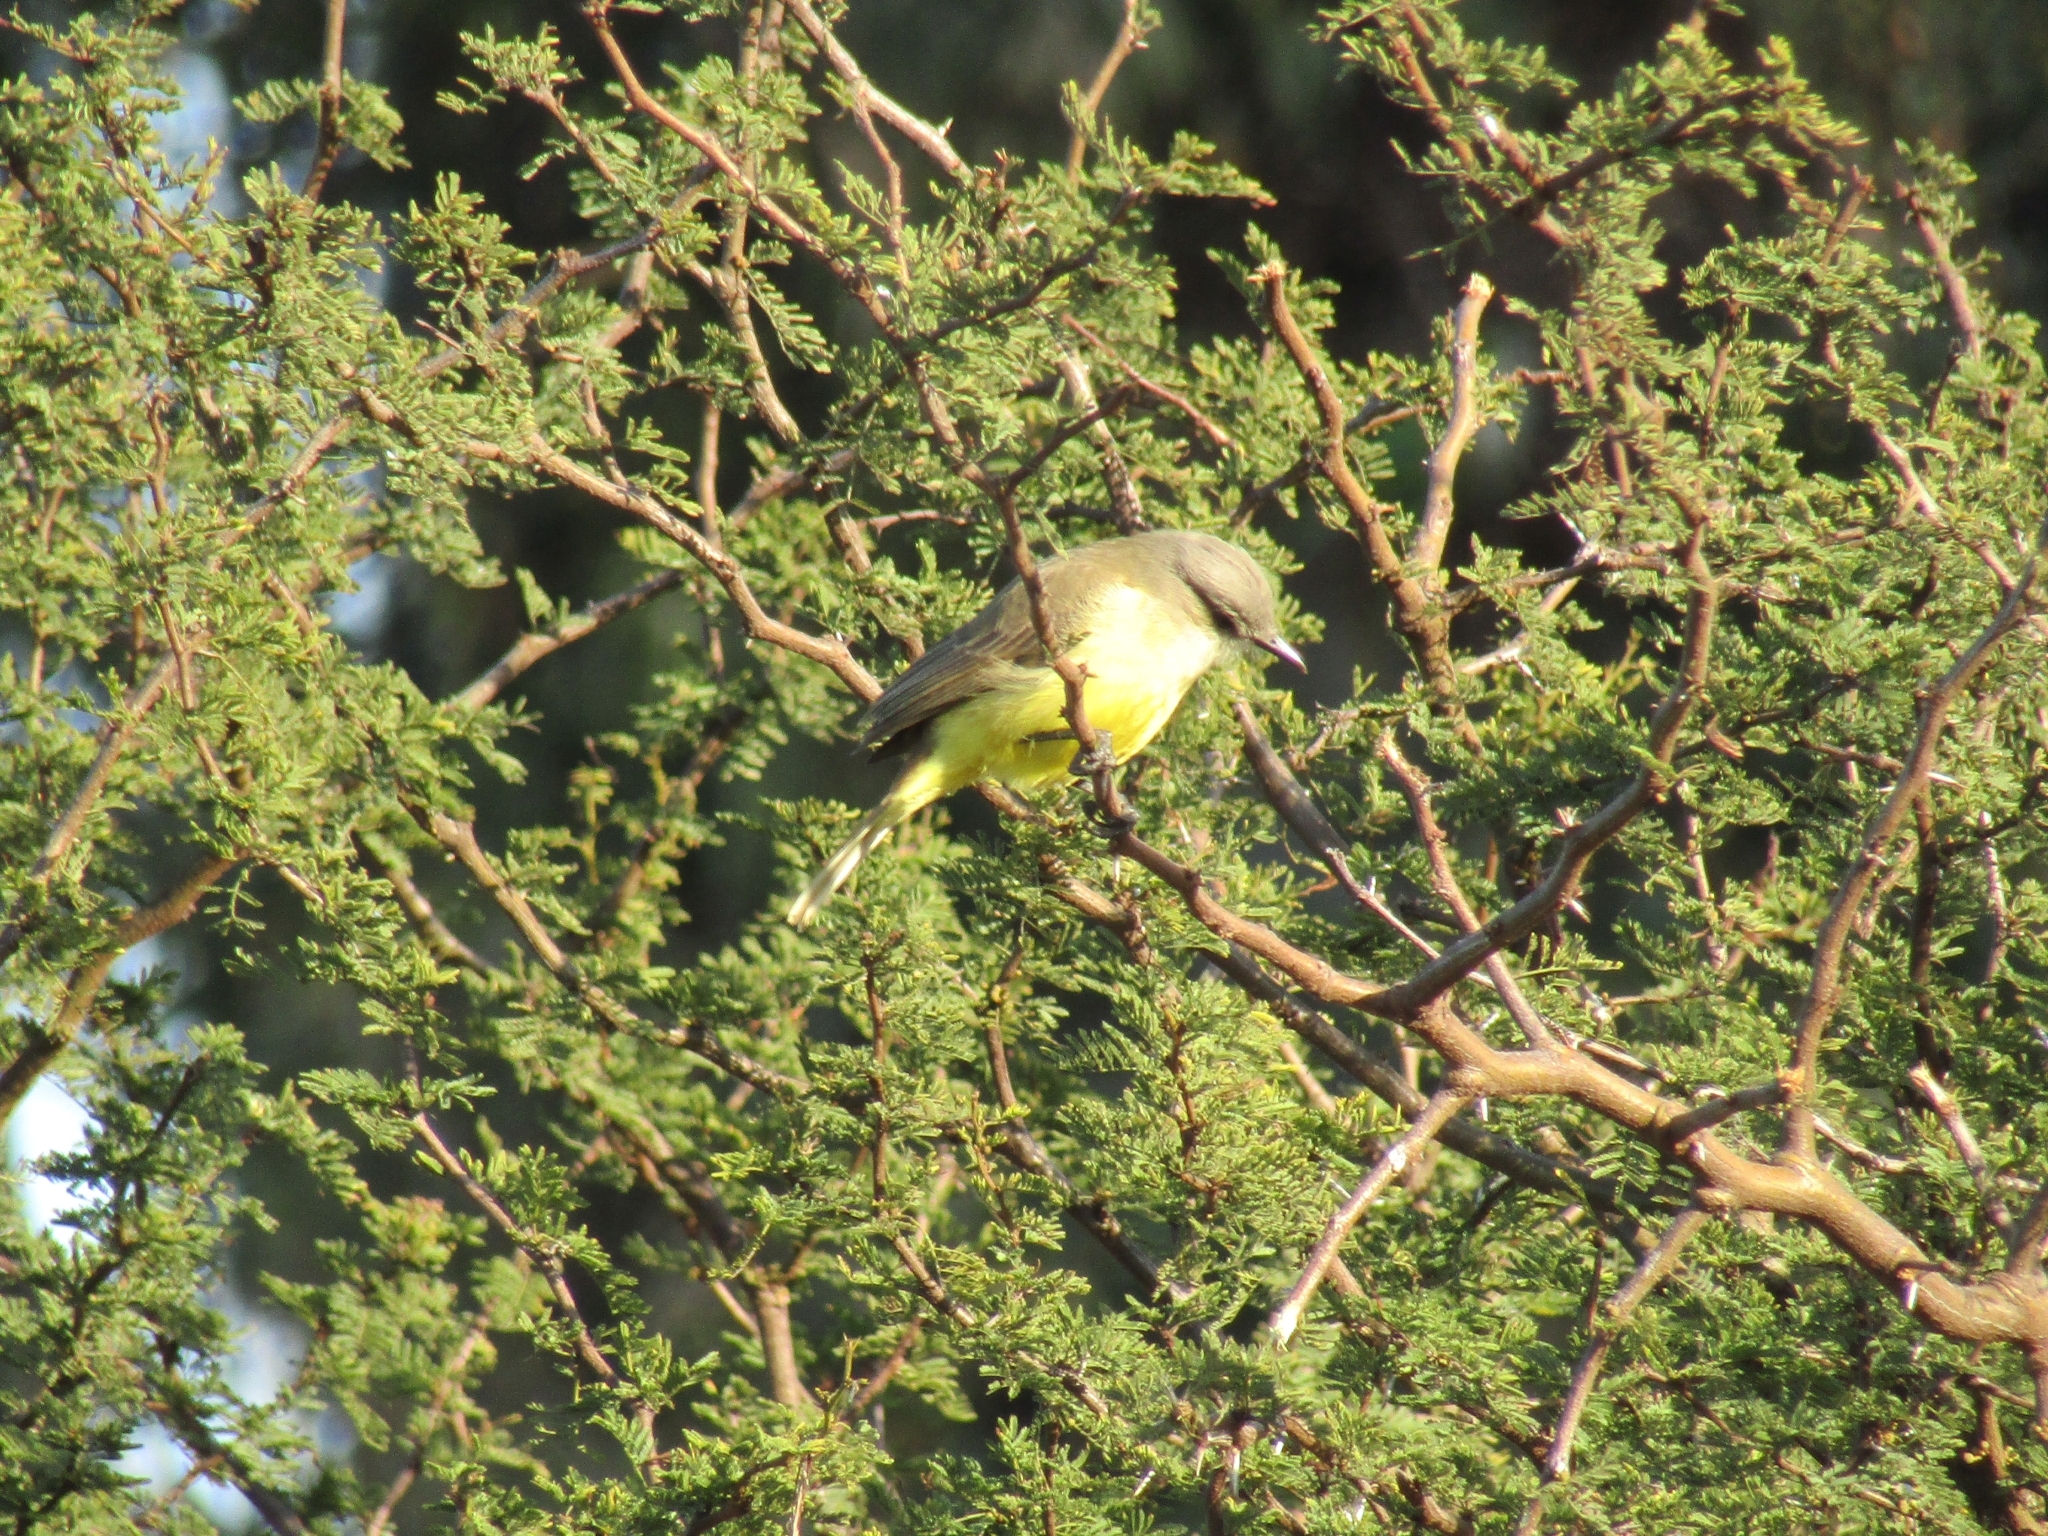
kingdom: Animalia
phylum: Chordata
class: Aves
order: Passeriformes
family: Tyrannidae
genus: Machetornis
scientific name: Machetornis rixosa
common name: Cattle tyrant
